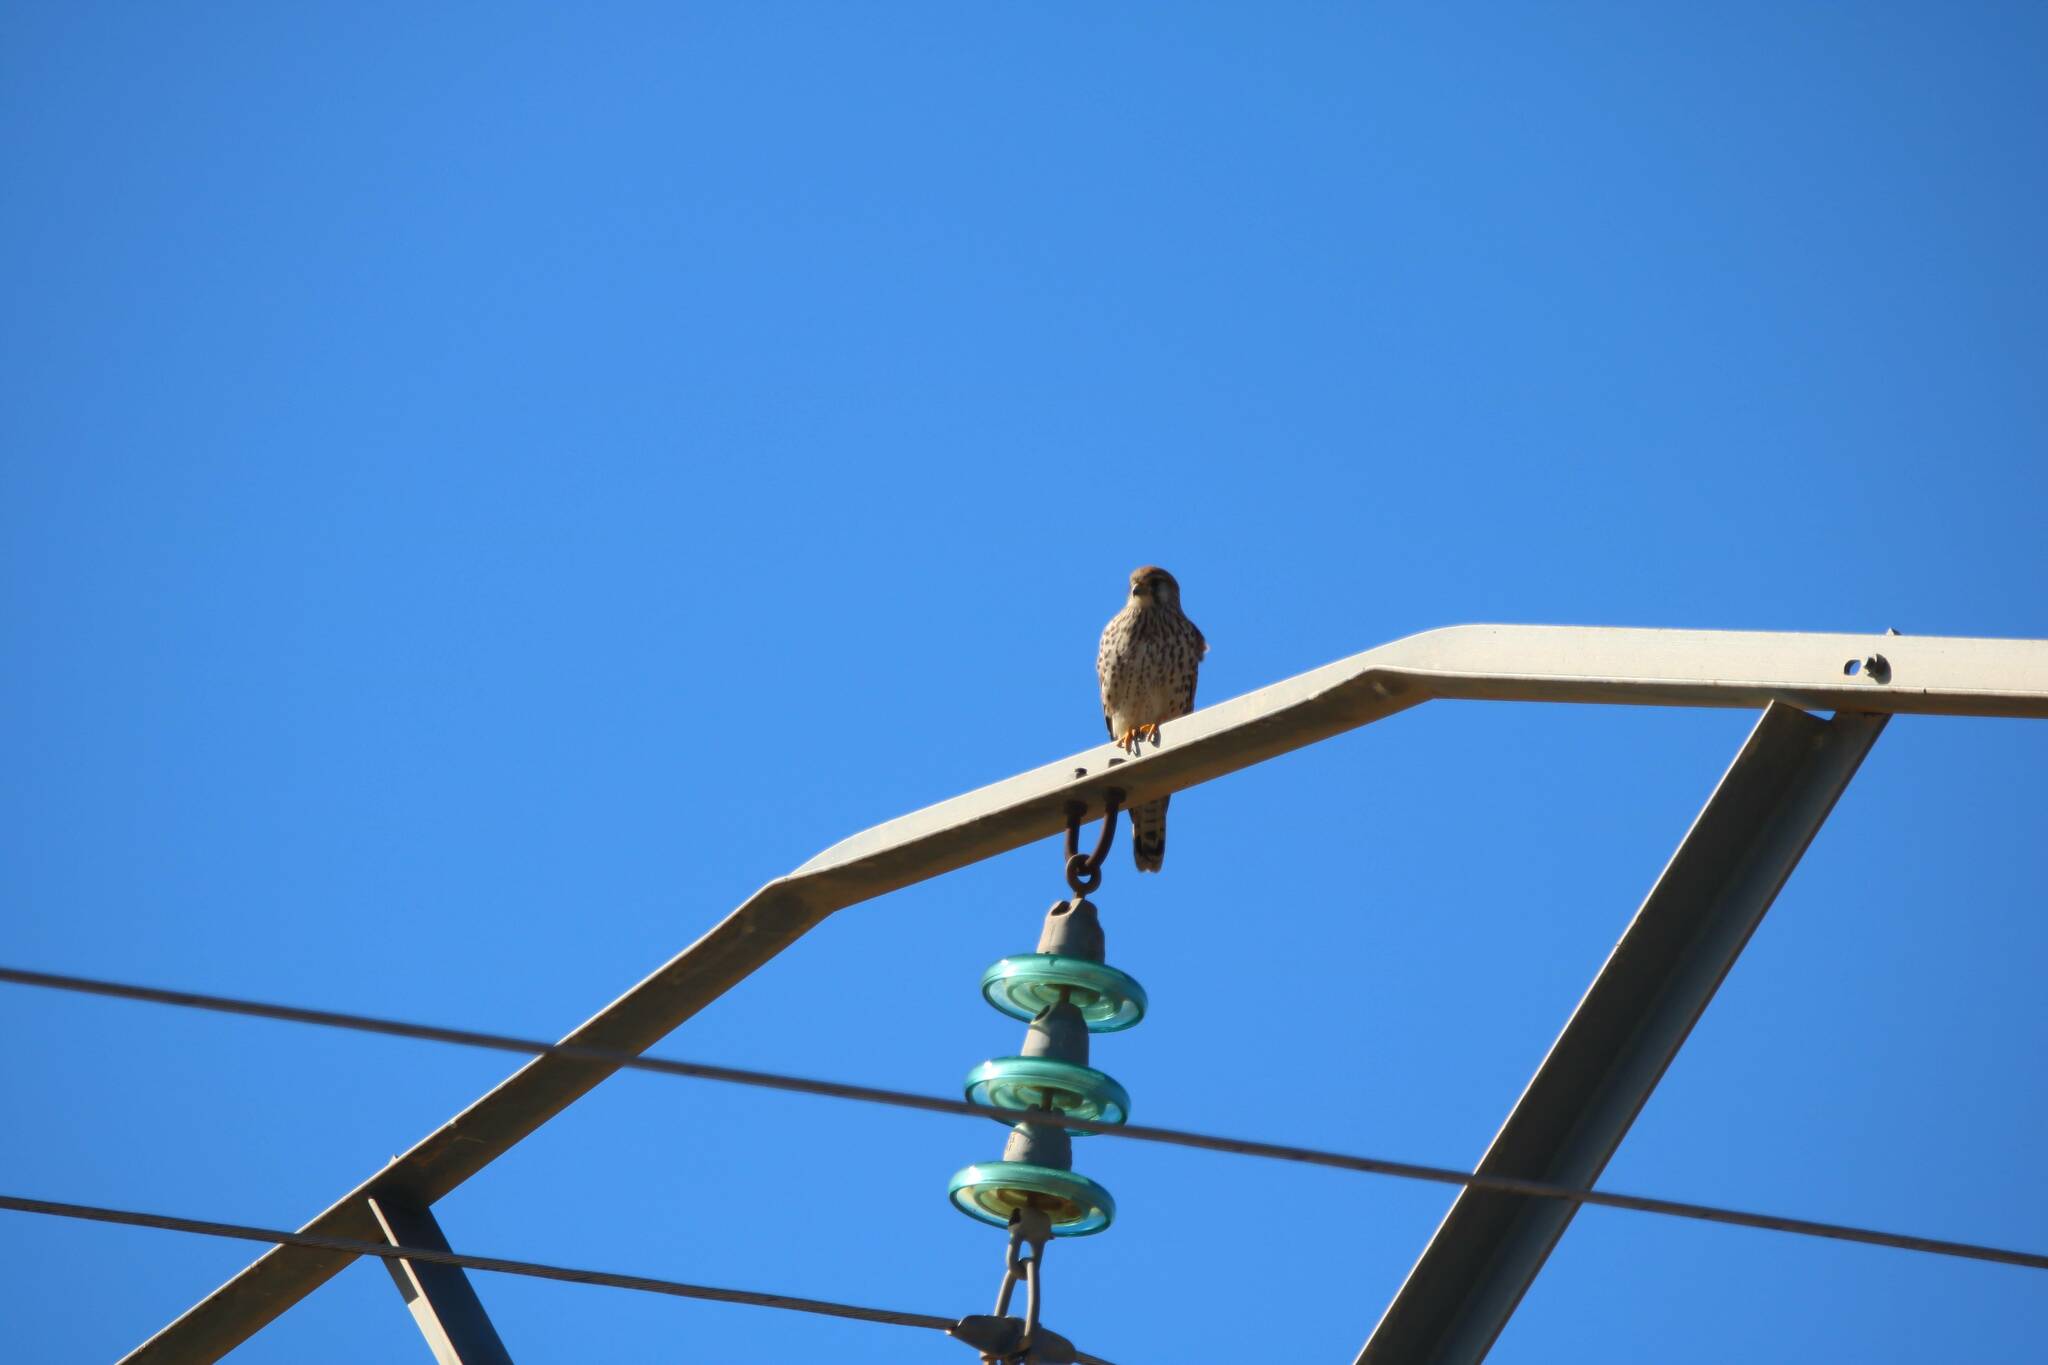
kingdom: Animalia
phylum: Chordata
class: Aves
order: Falconiformes
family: Falconidae
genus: Falco
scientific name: Falco tinnunculus
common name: Common kestrel
